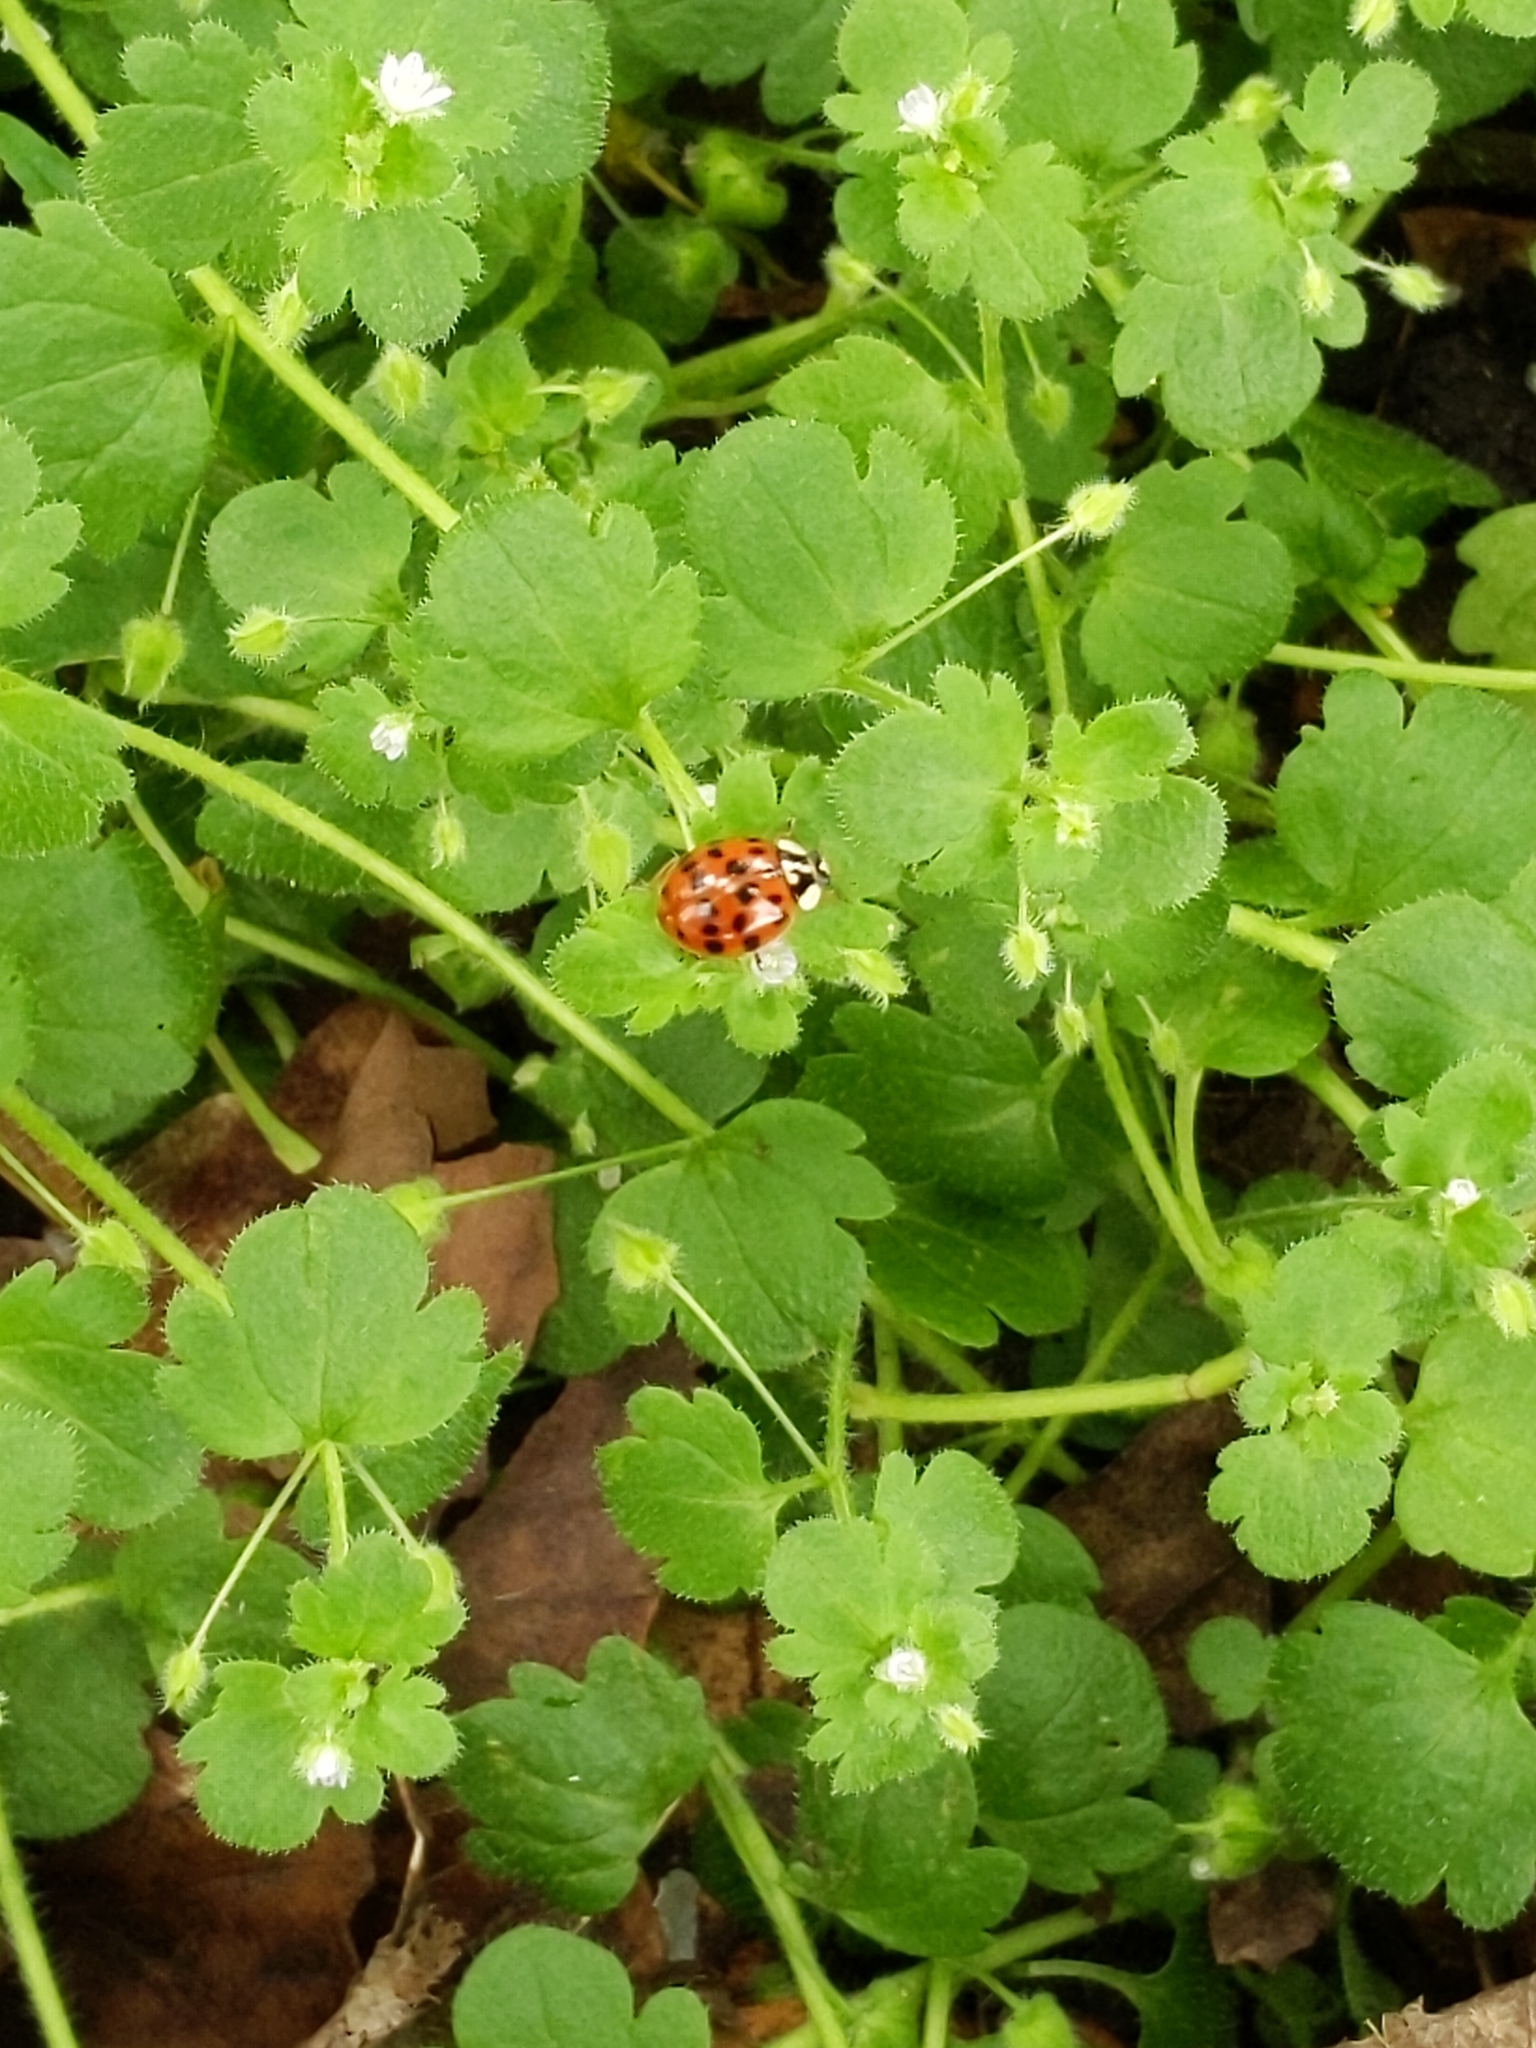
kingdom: Animalia
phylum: Arthropoda
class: Insecta
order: Coleoptera
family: Coccinellidae
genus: Harmonia
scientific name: Harmonia axyridis
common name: Harlequin ladybird
